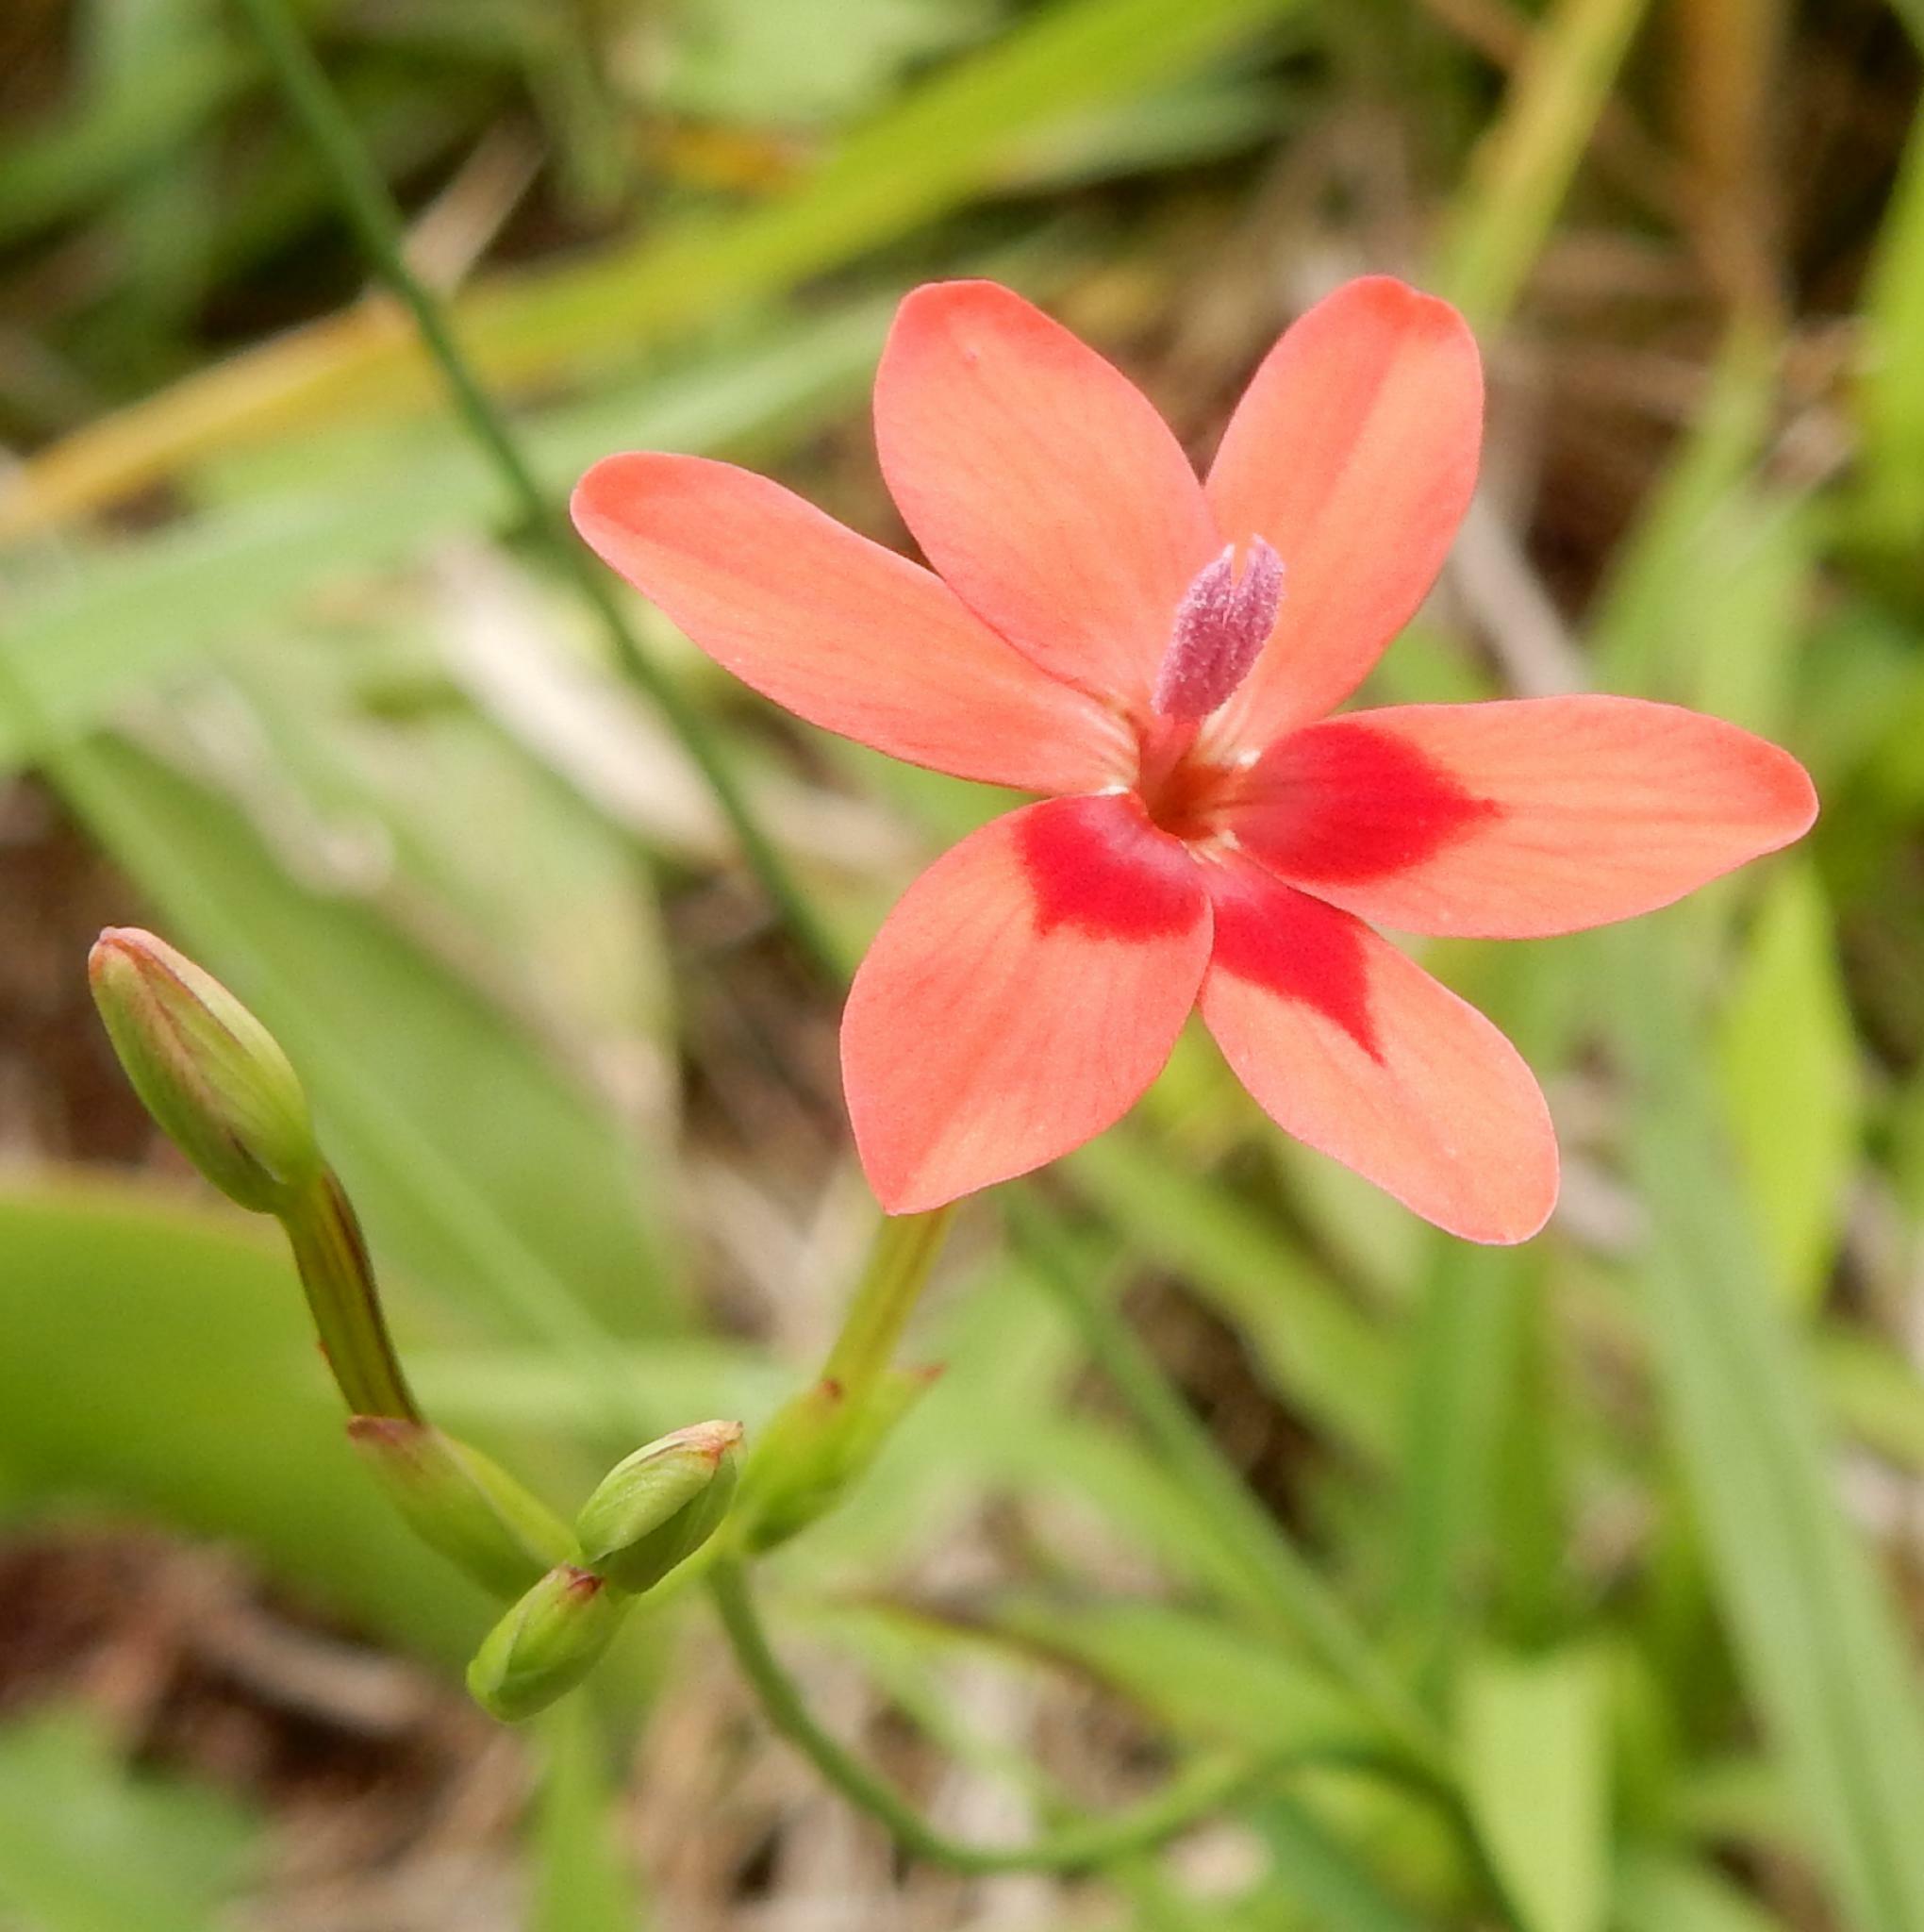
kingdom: Plantae
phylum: Tracheophyta
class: Liliopsida
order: Asparagales
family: Iridaceae
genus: Freesia
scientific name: Freesia laxa
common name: False freesia
